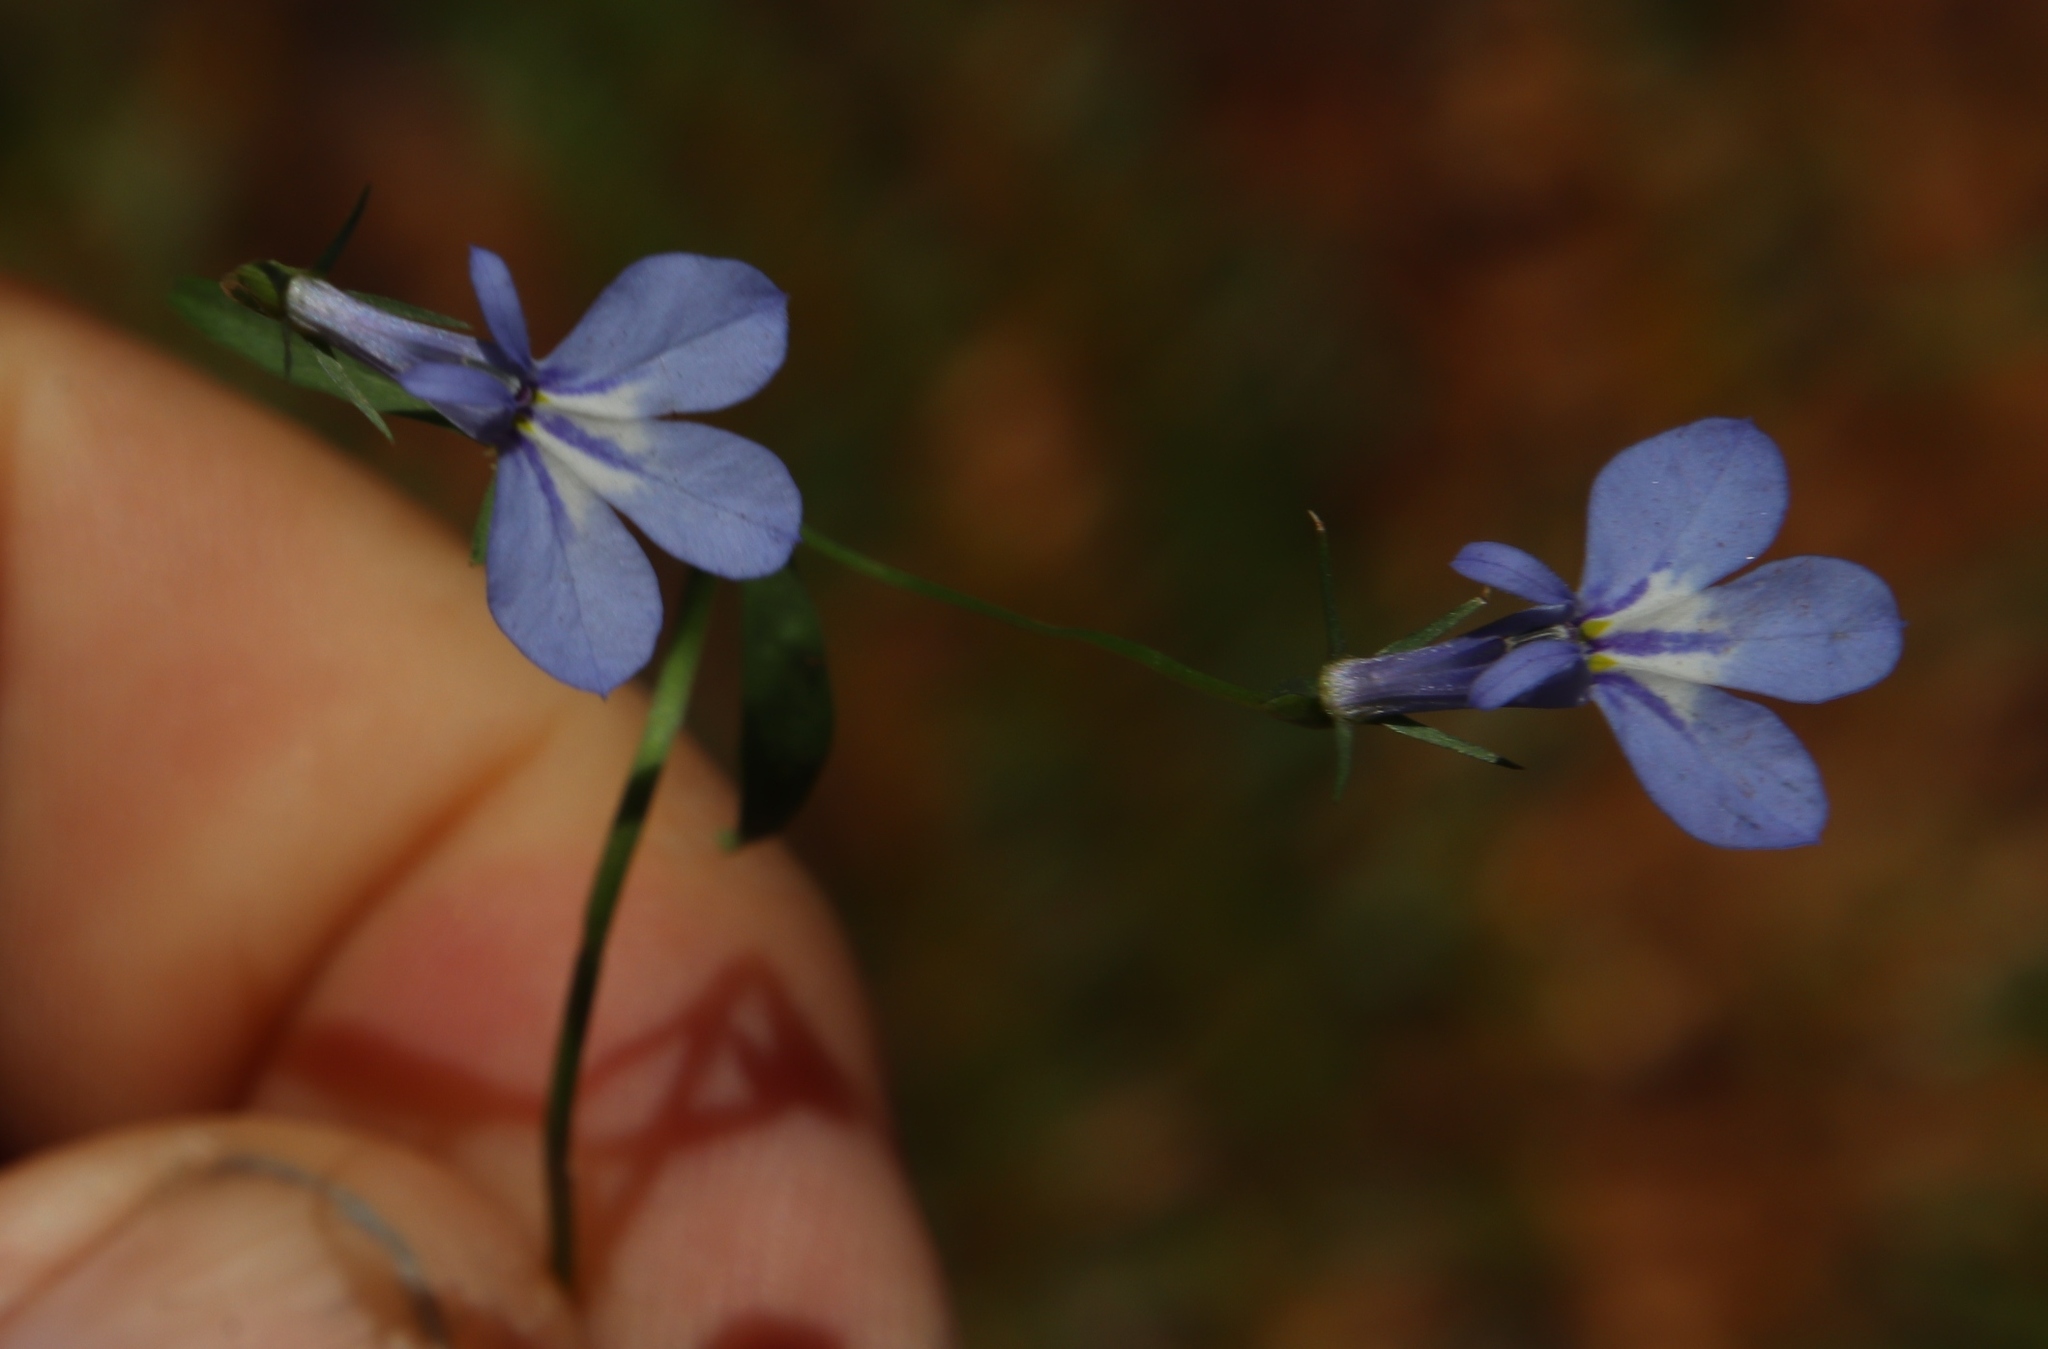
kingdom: Plantae
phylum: Tracheophyta
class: Magnoliopsida
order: Asterales
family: Campanulaceae
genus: Lobelia
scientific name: Lobelia erinus
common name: Edging lobelia
